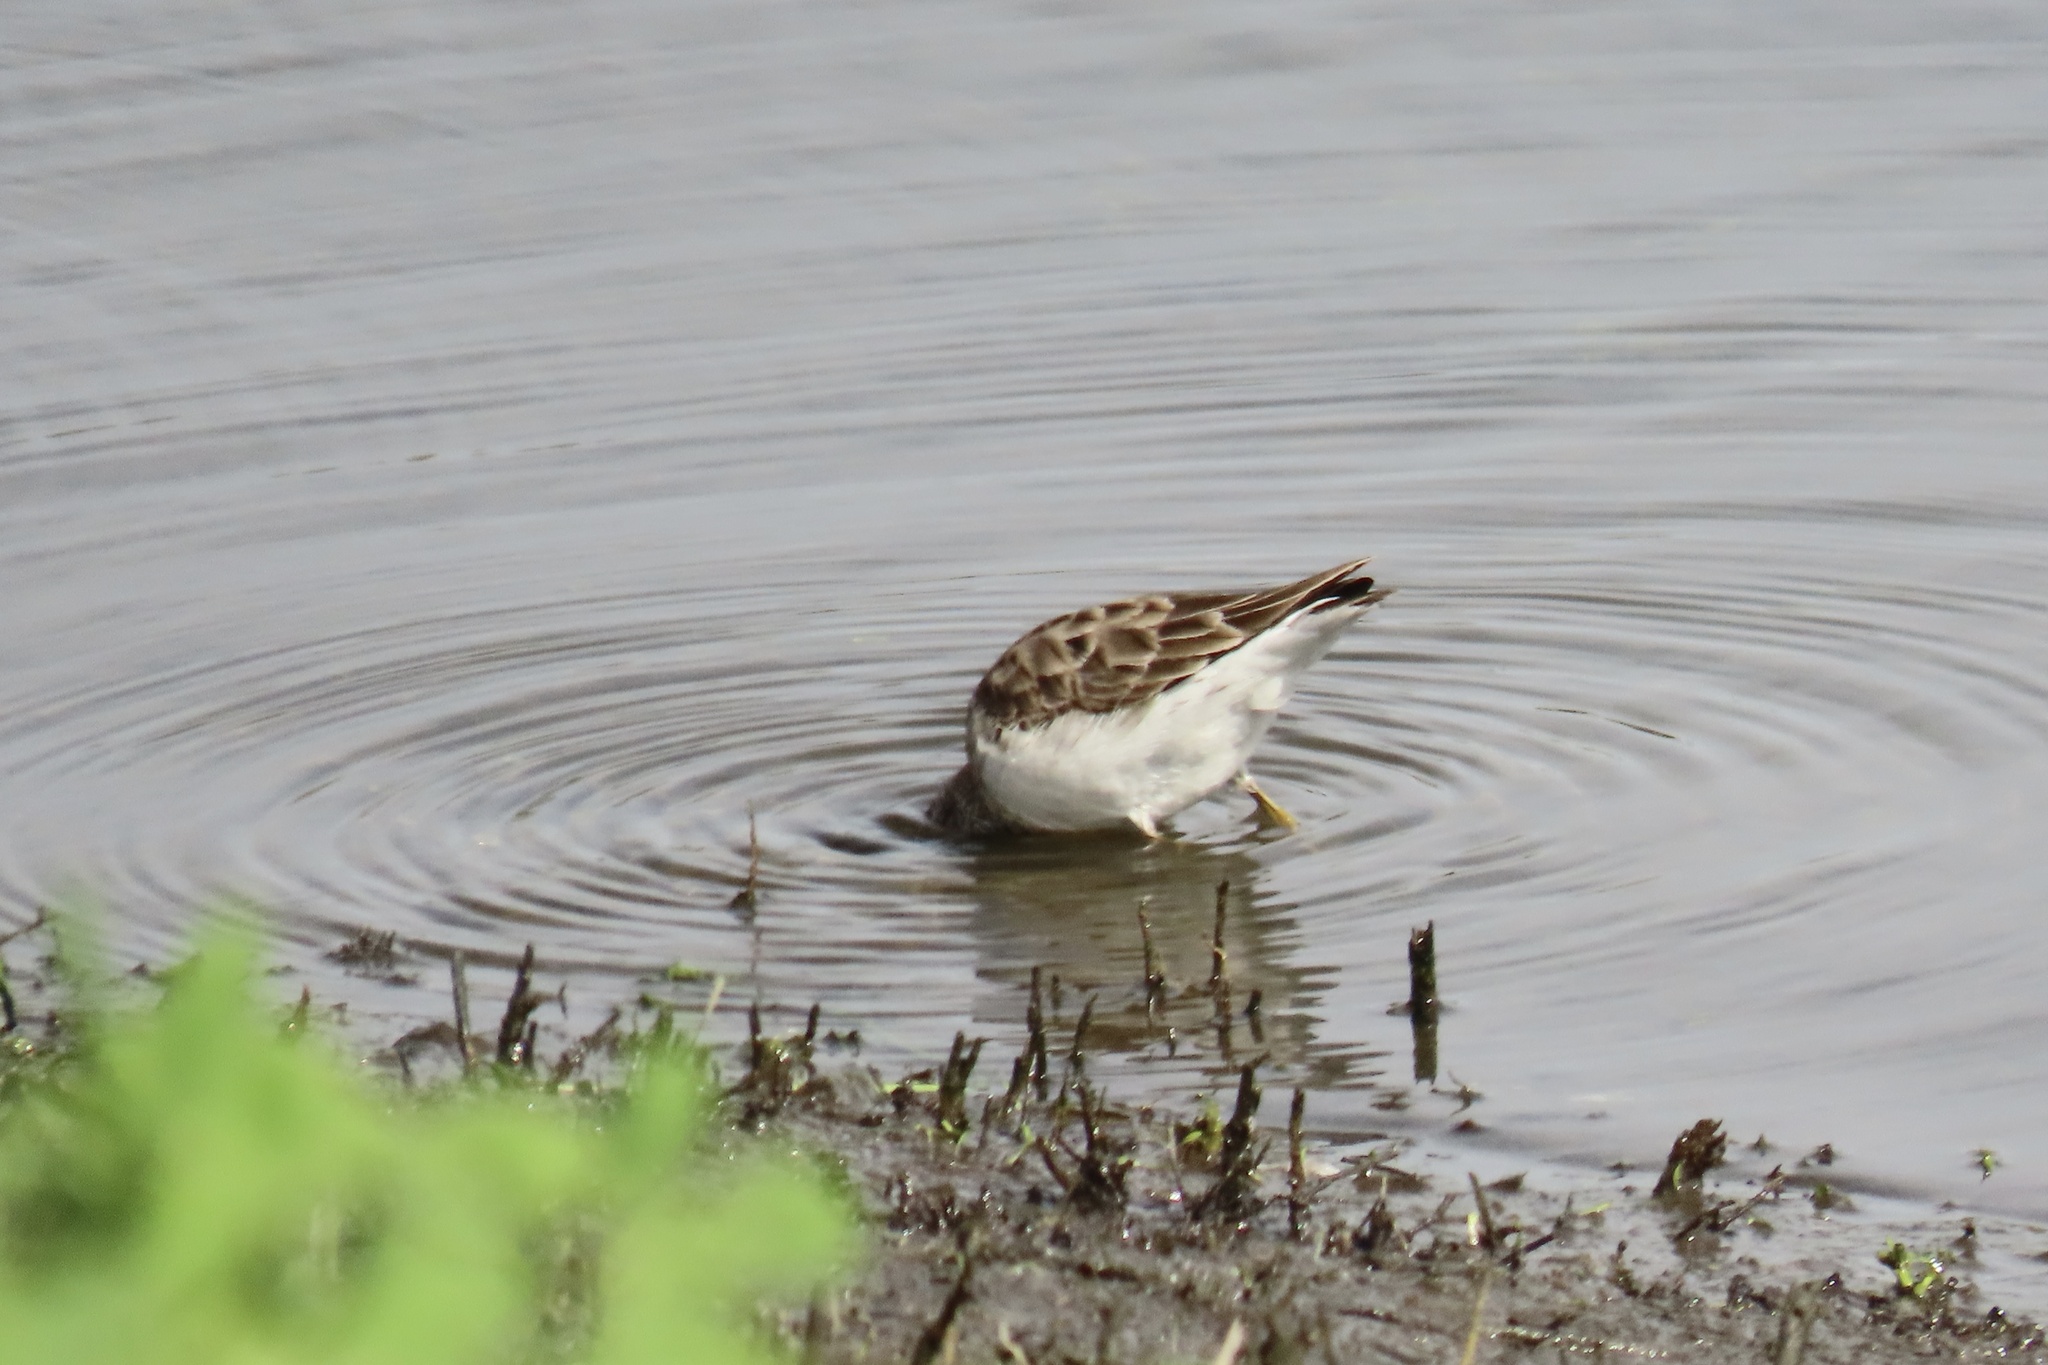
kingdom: Animalia
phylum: Chordata
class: Aves
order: Charadriiformes
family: Scolopacidae
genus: Calidris
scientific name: Calidris minutilla
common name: Least sandpiper
